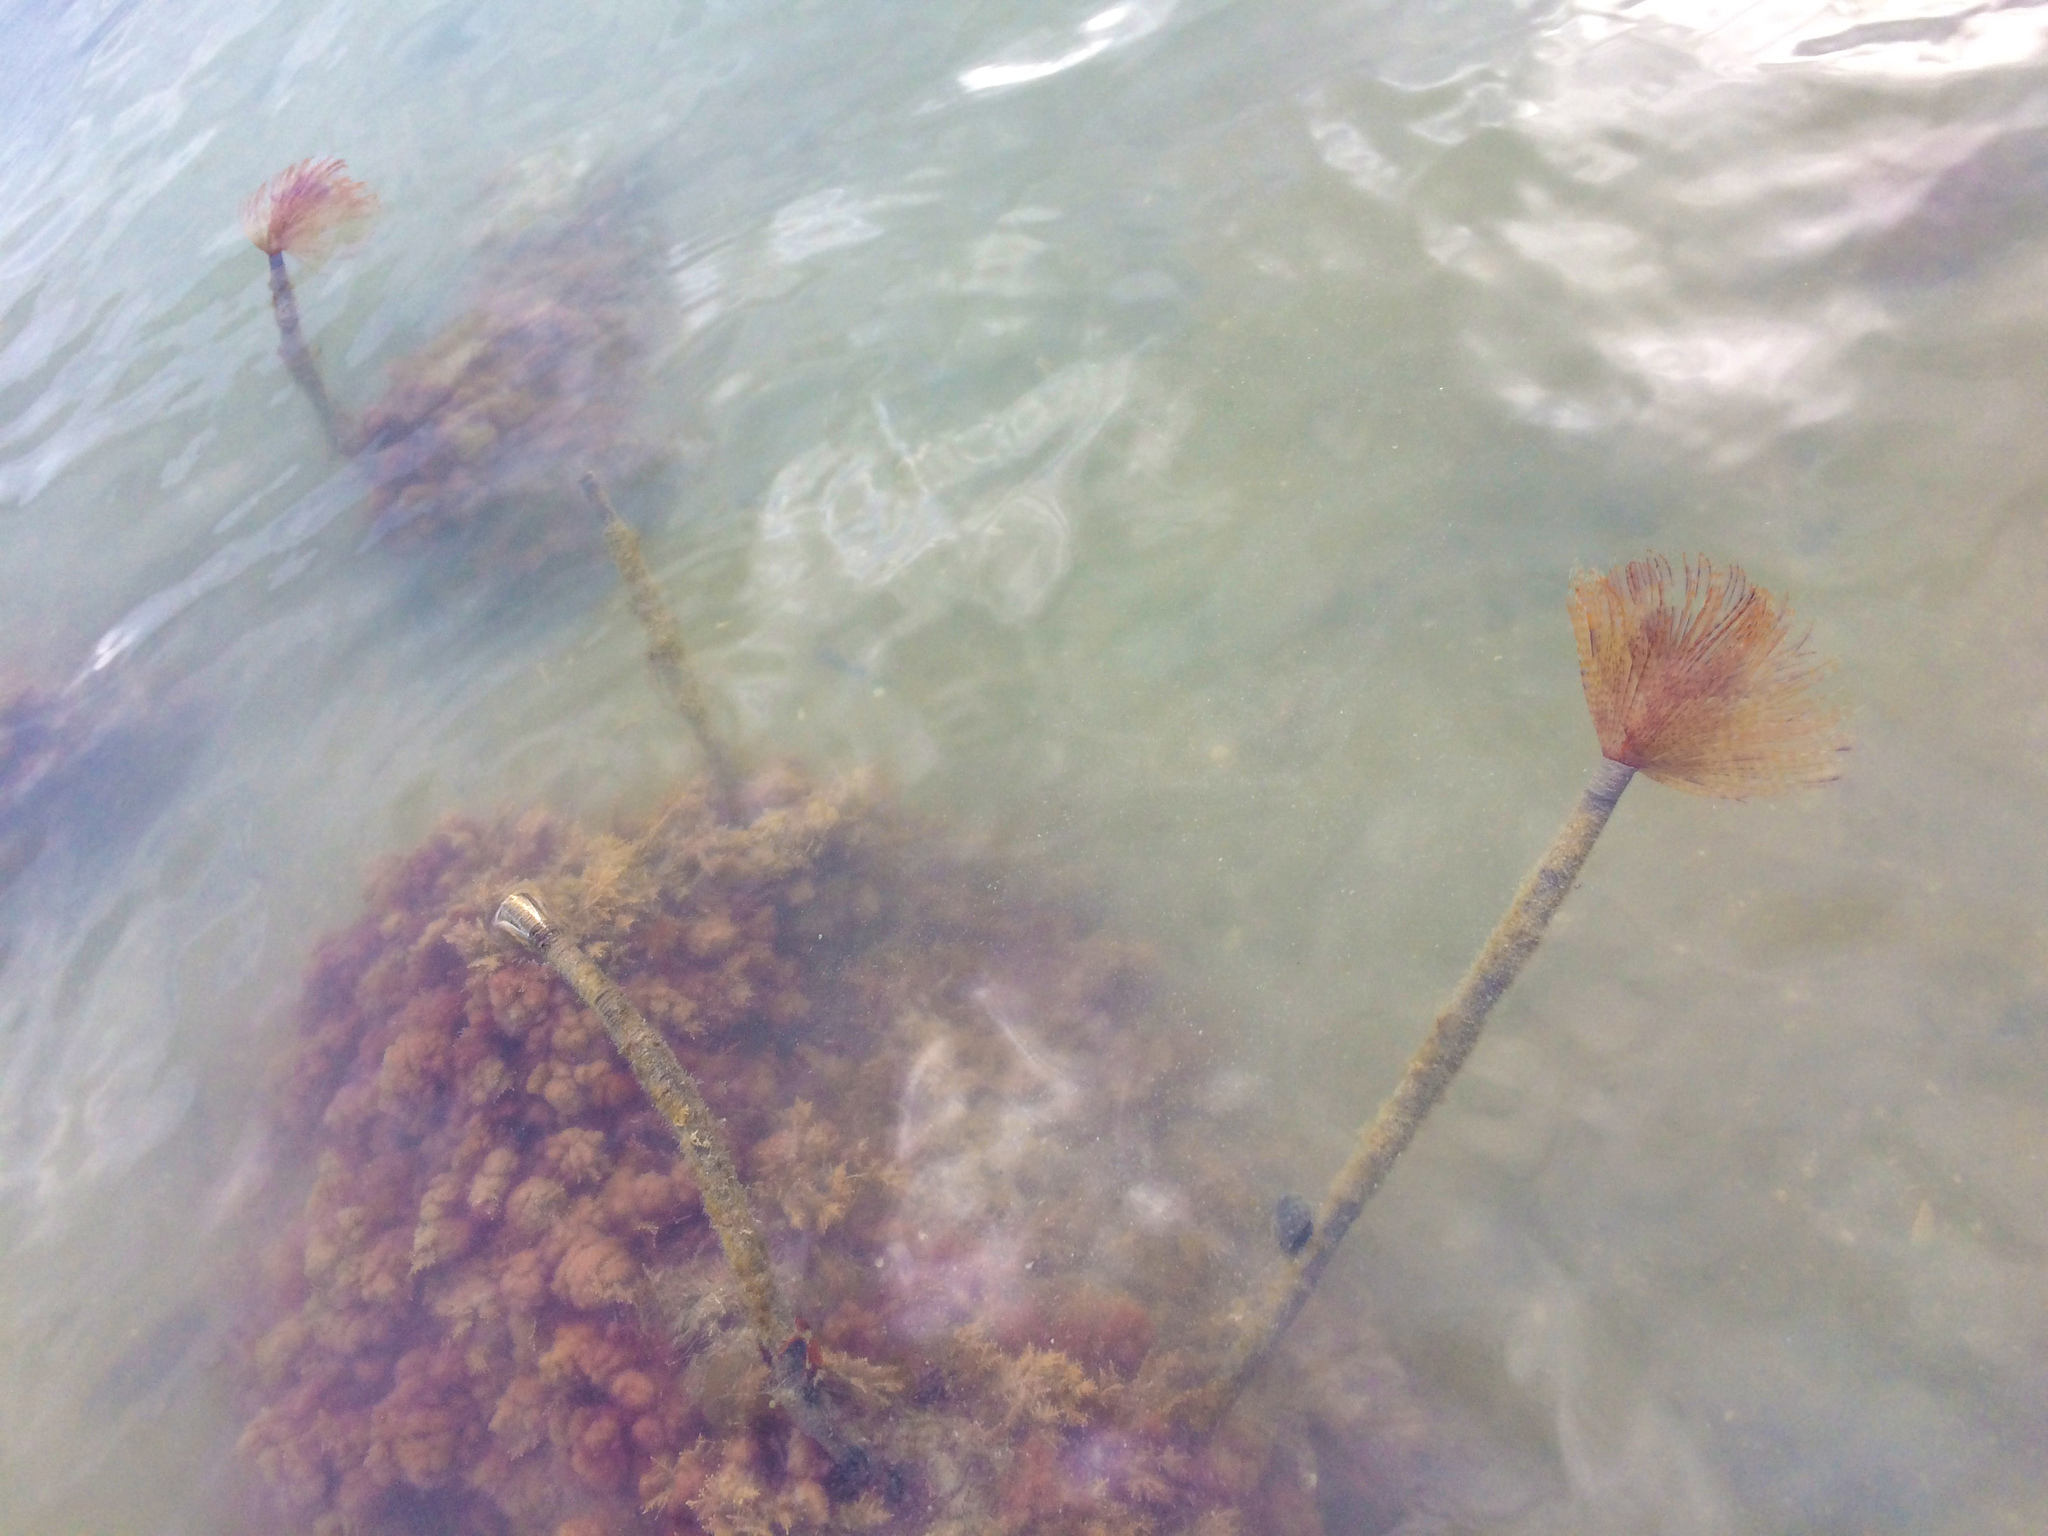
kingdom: Animalia
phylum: Annelida
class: Polychaeta
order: Sabellida
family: Sabellidae
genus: Sabella
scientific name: Sabella spallanzanii
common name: Feather duster worm
